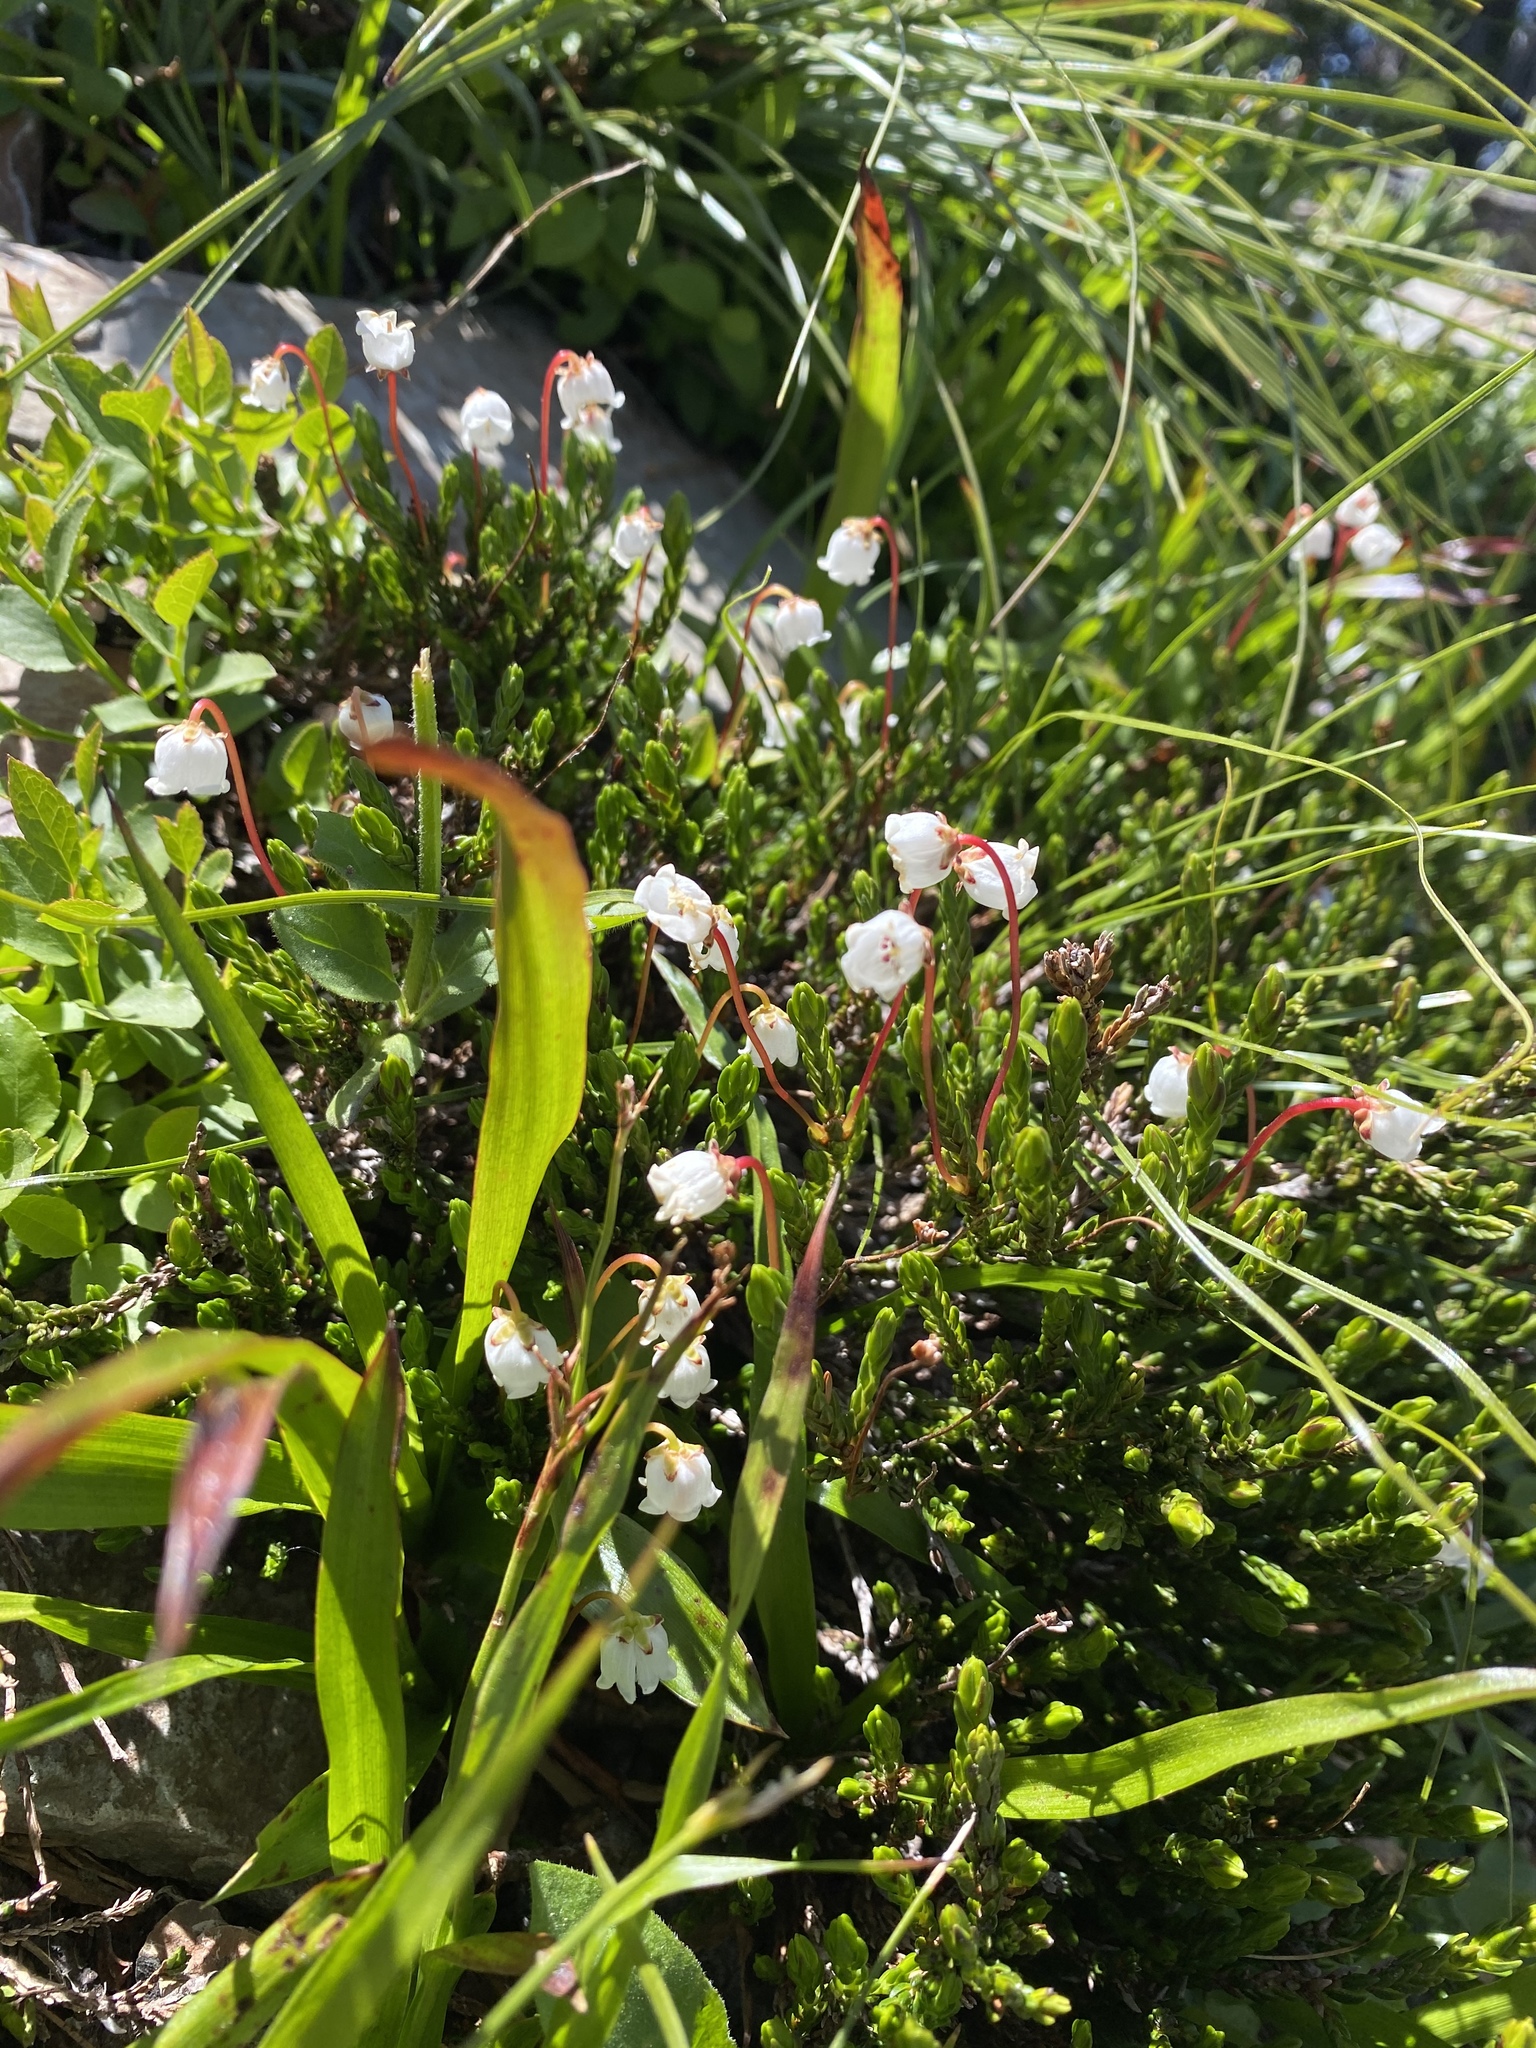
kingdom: Plantae
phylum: Tracheophyta
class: Magnoliopsida
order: Ericales
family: Ericaceae
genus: Cassiope
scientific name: Cassiope mertensiana
